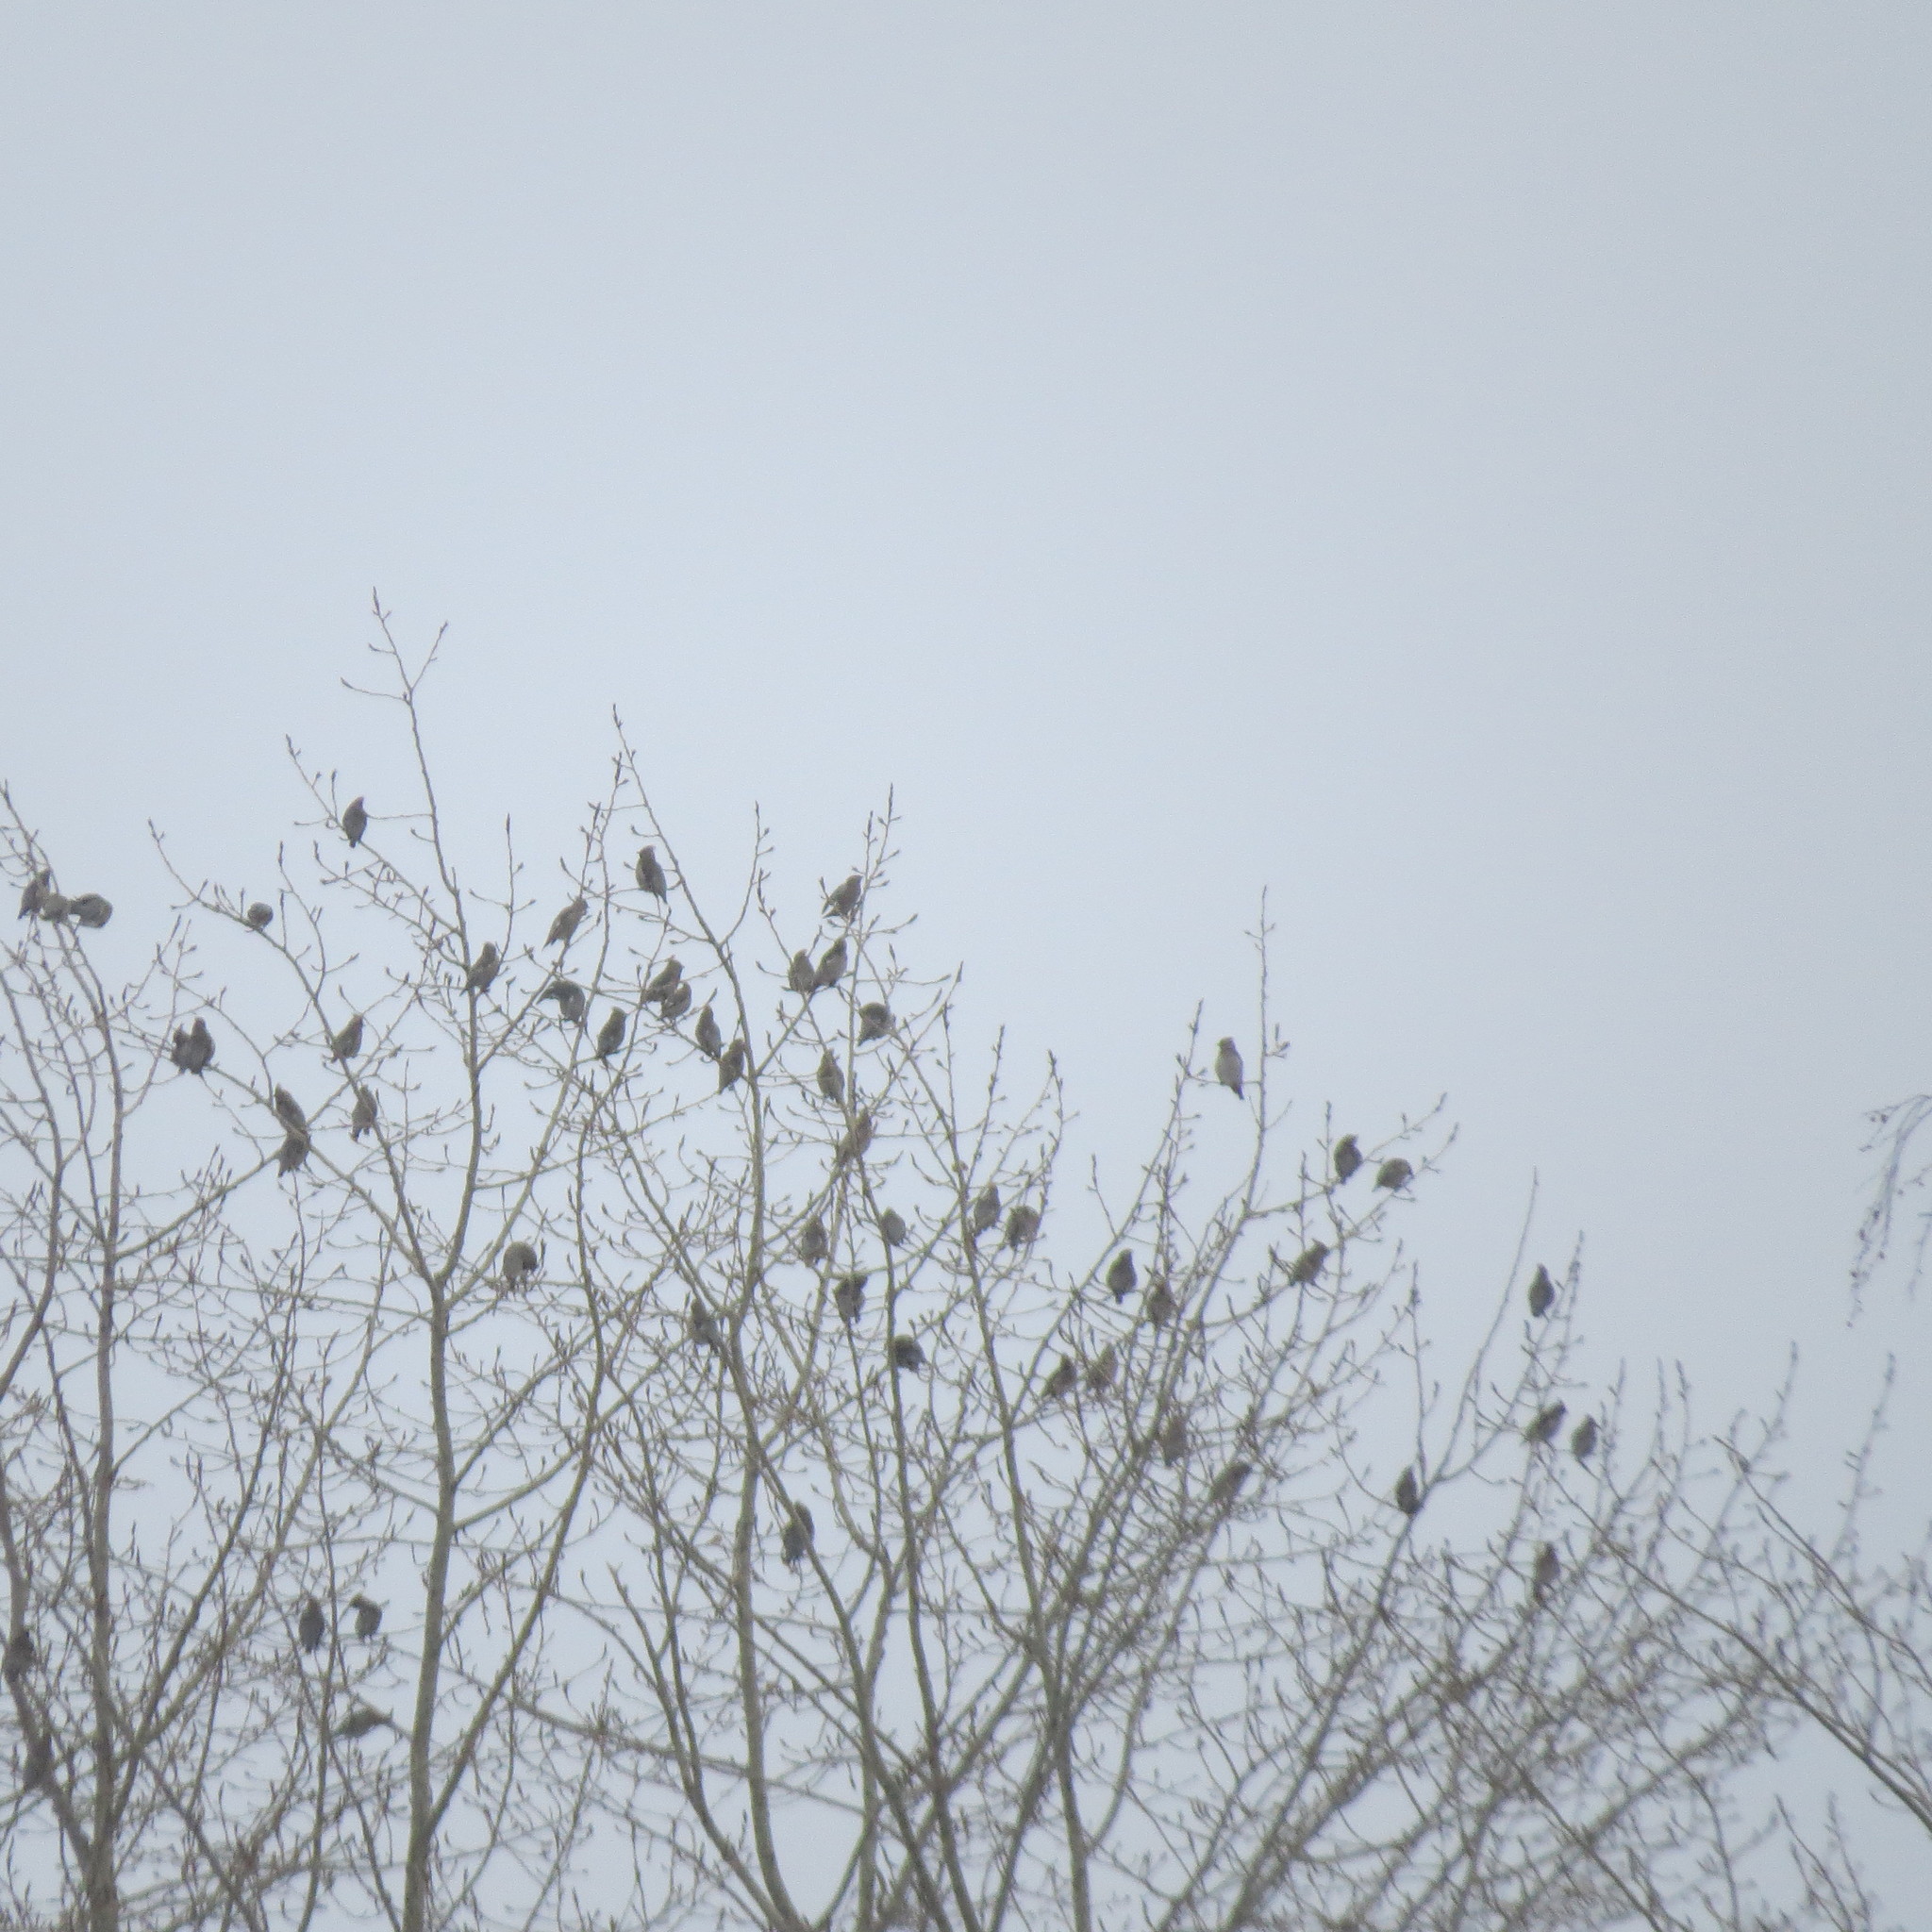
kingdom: Animalia
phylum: Chordata
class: Aves
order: Passeriformes
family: Bombycillidae
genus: Bombycilla
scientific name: Bombycilla garrulus
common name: Bohemian waxwing
